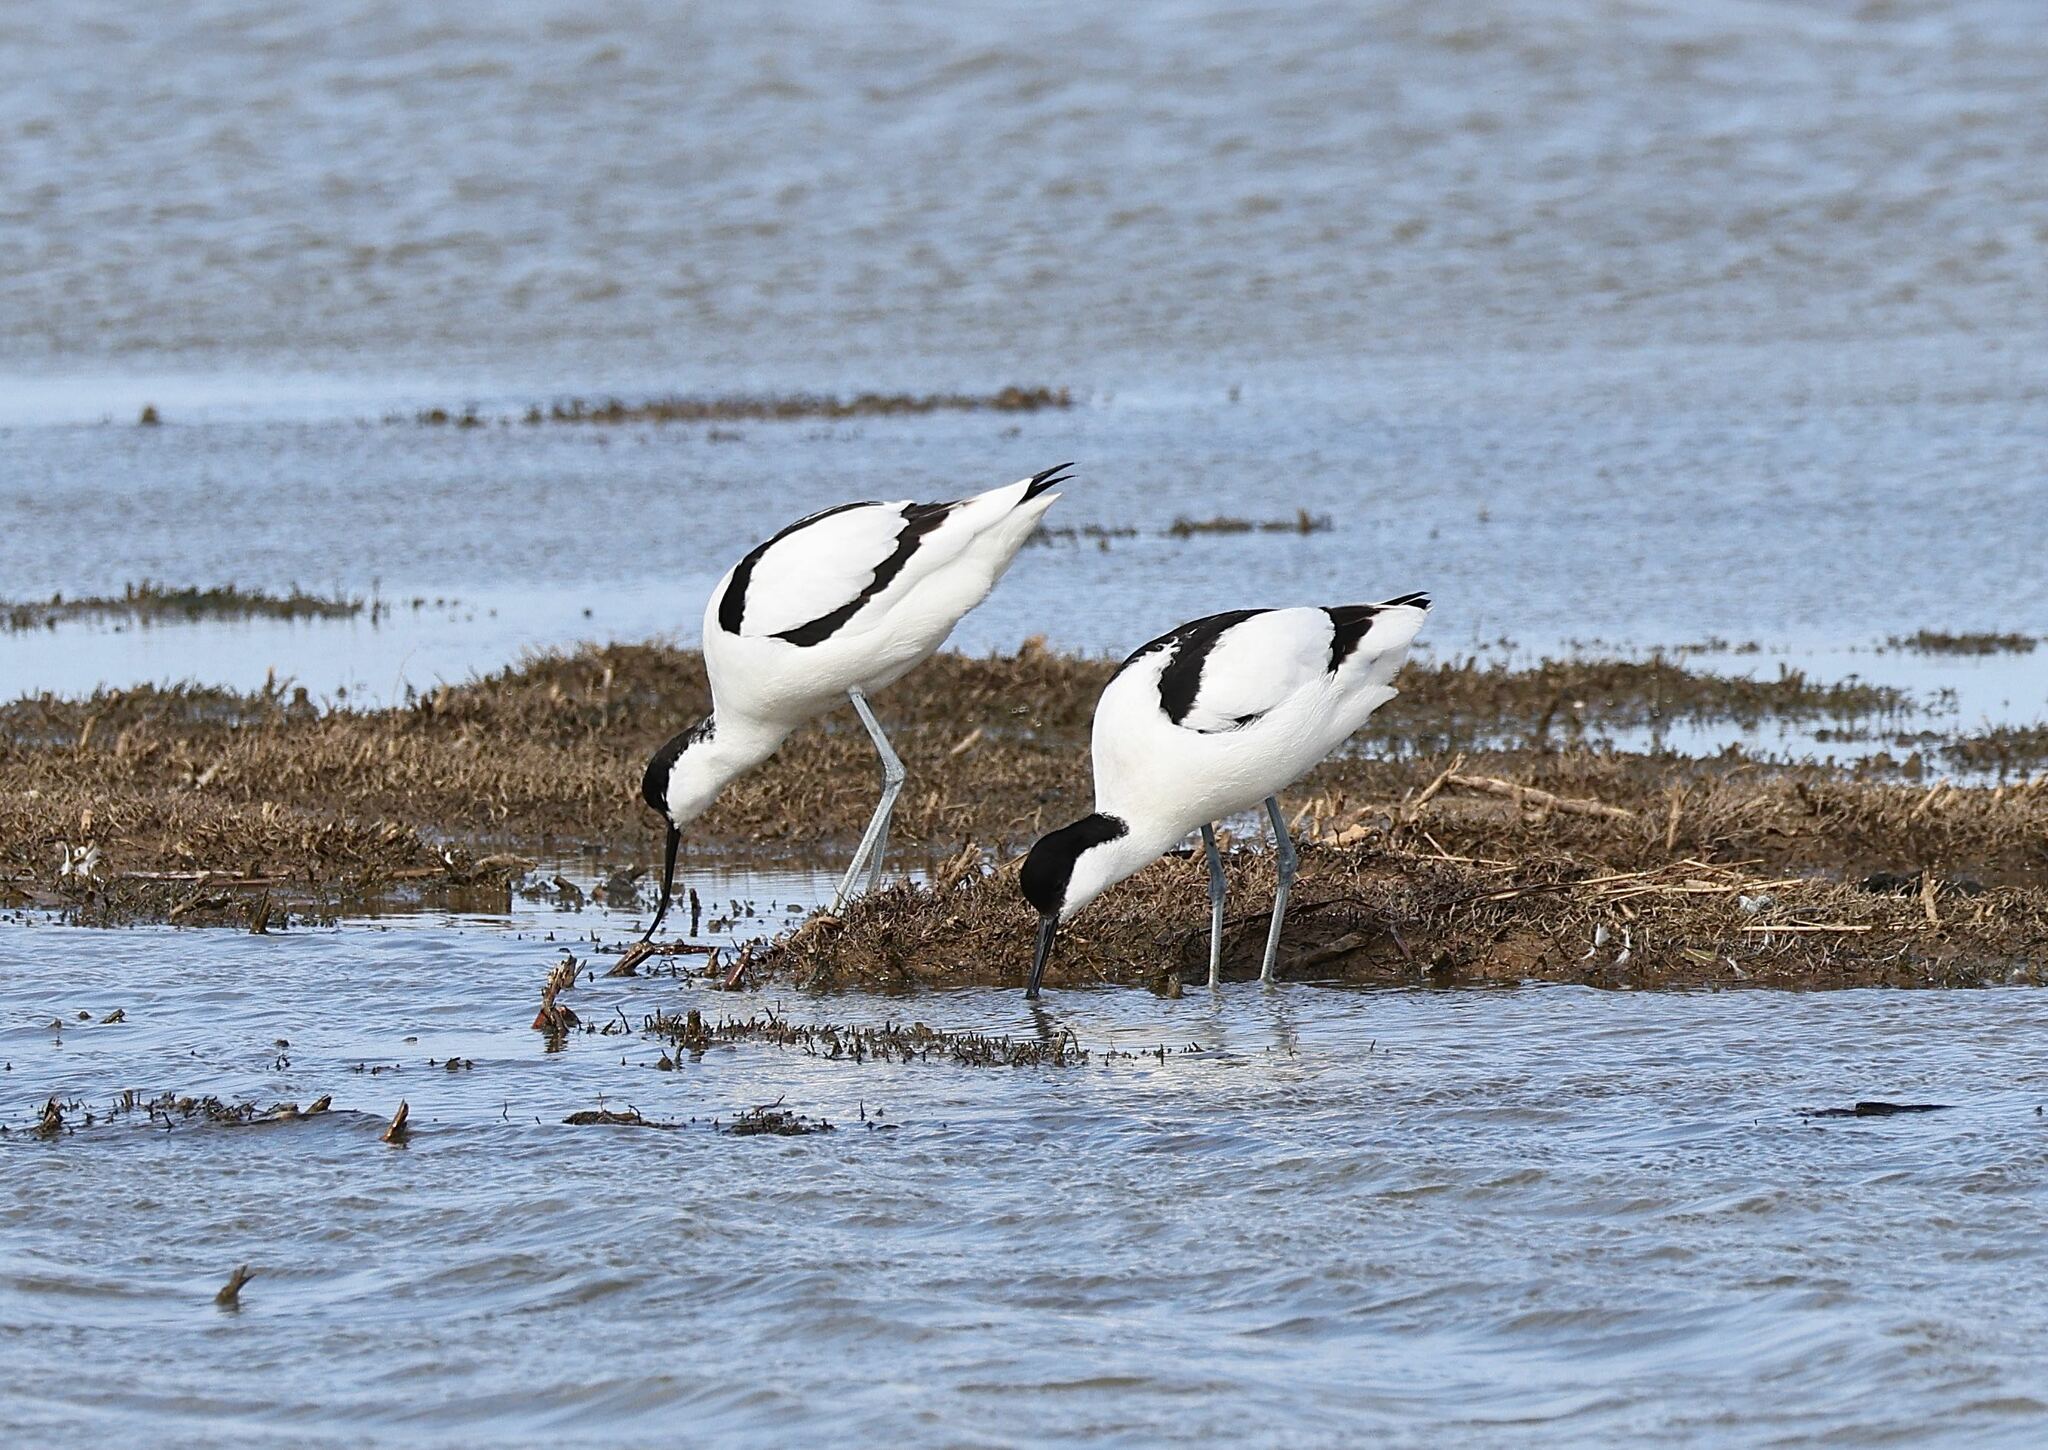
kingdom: Animalia
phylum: Chordata
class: Aves
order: Charadriiformes
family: Recurvirostridae
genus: Recurvirostra
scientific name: Recurvirostra avosetta
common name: Pied avocet
